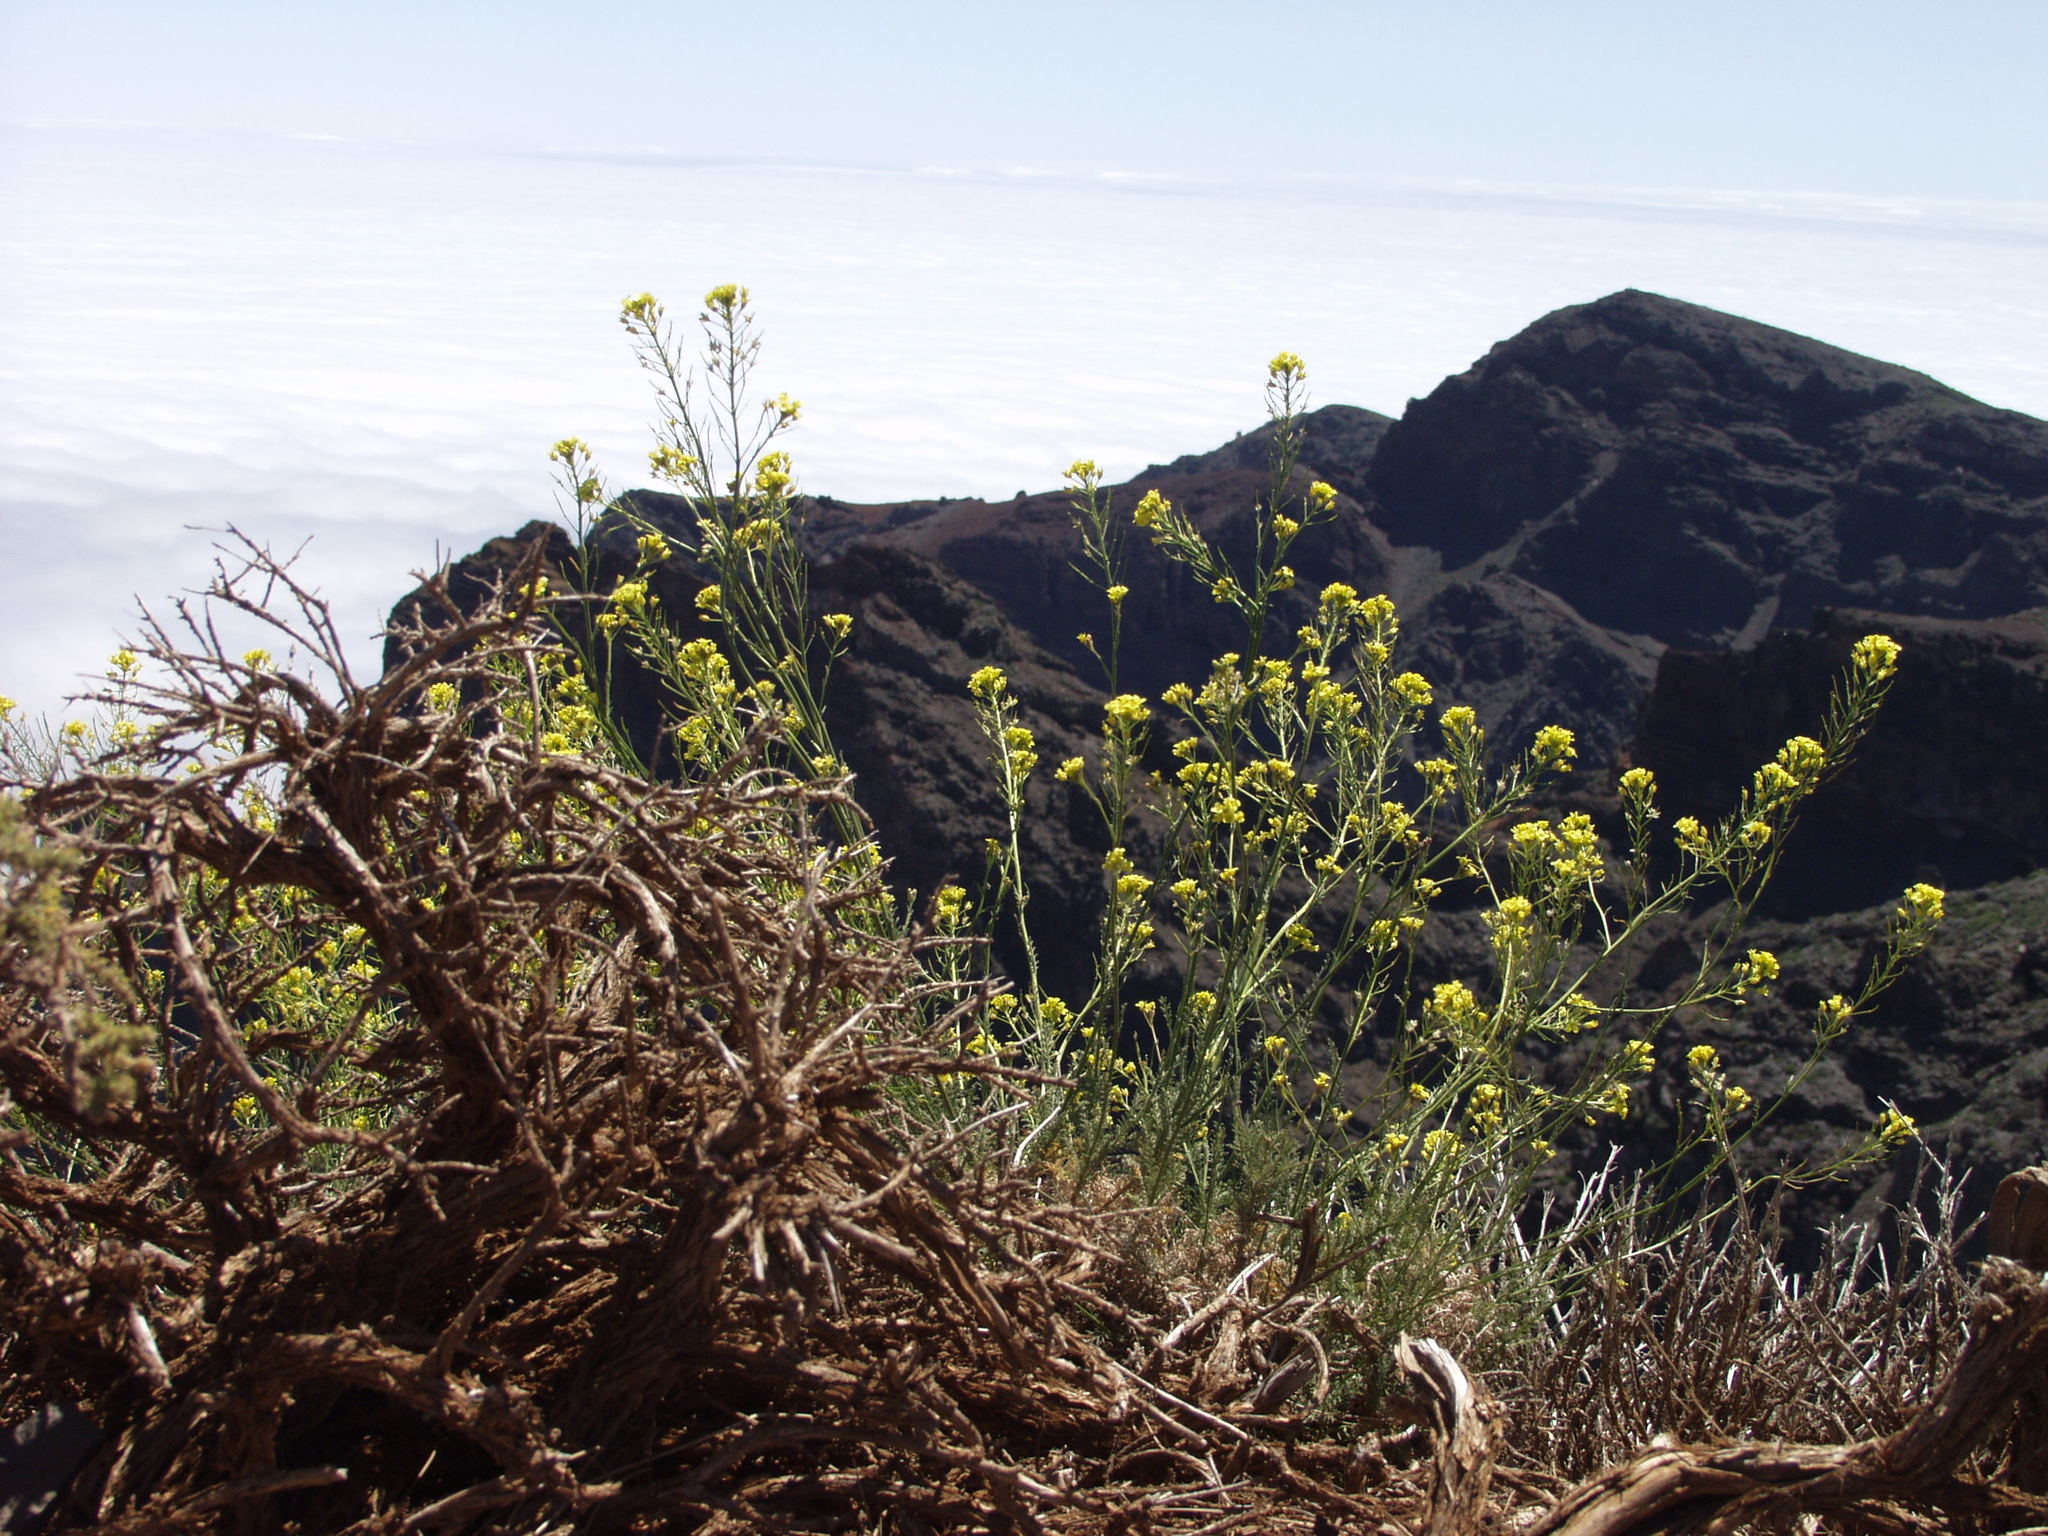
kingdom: Plantae
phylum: Tracheophyta
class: Magnoliopsida
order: Brassicales
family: Brassicaceae
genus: Descurainia
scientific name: Descurainia gilva
